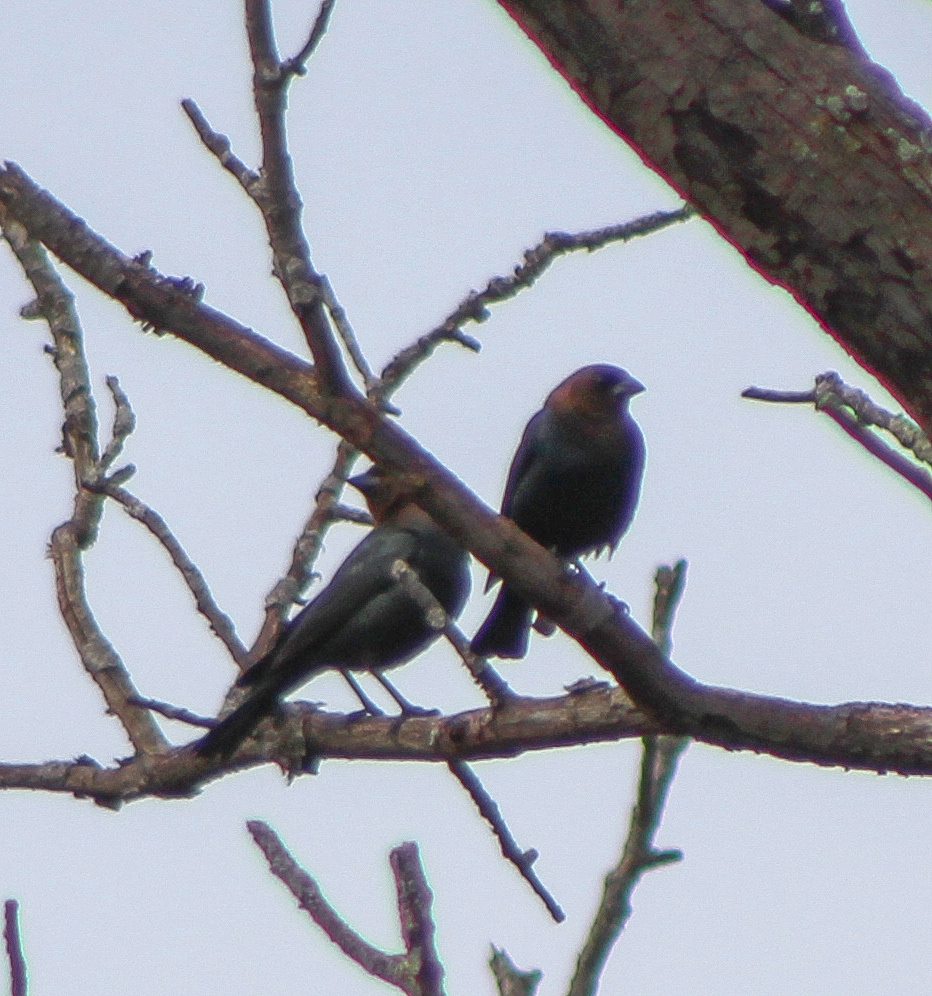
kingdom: Animalia
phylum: Chordata
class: Aves
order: Passeriformes
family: Icteridae
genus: Molothrus
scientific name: Molothrus ater
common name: Brown-headed cowbird
